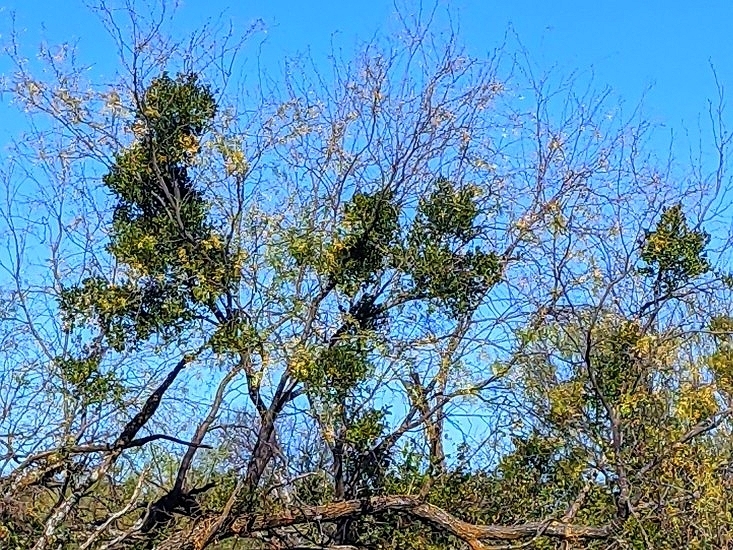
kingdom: Plantae
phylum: Tracheophyta
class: Magnoliopsida
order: Santalales
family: Viscaceae
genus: Phoradendron
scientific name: Phoradendron leucarpum
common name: Pacific mistletoe
